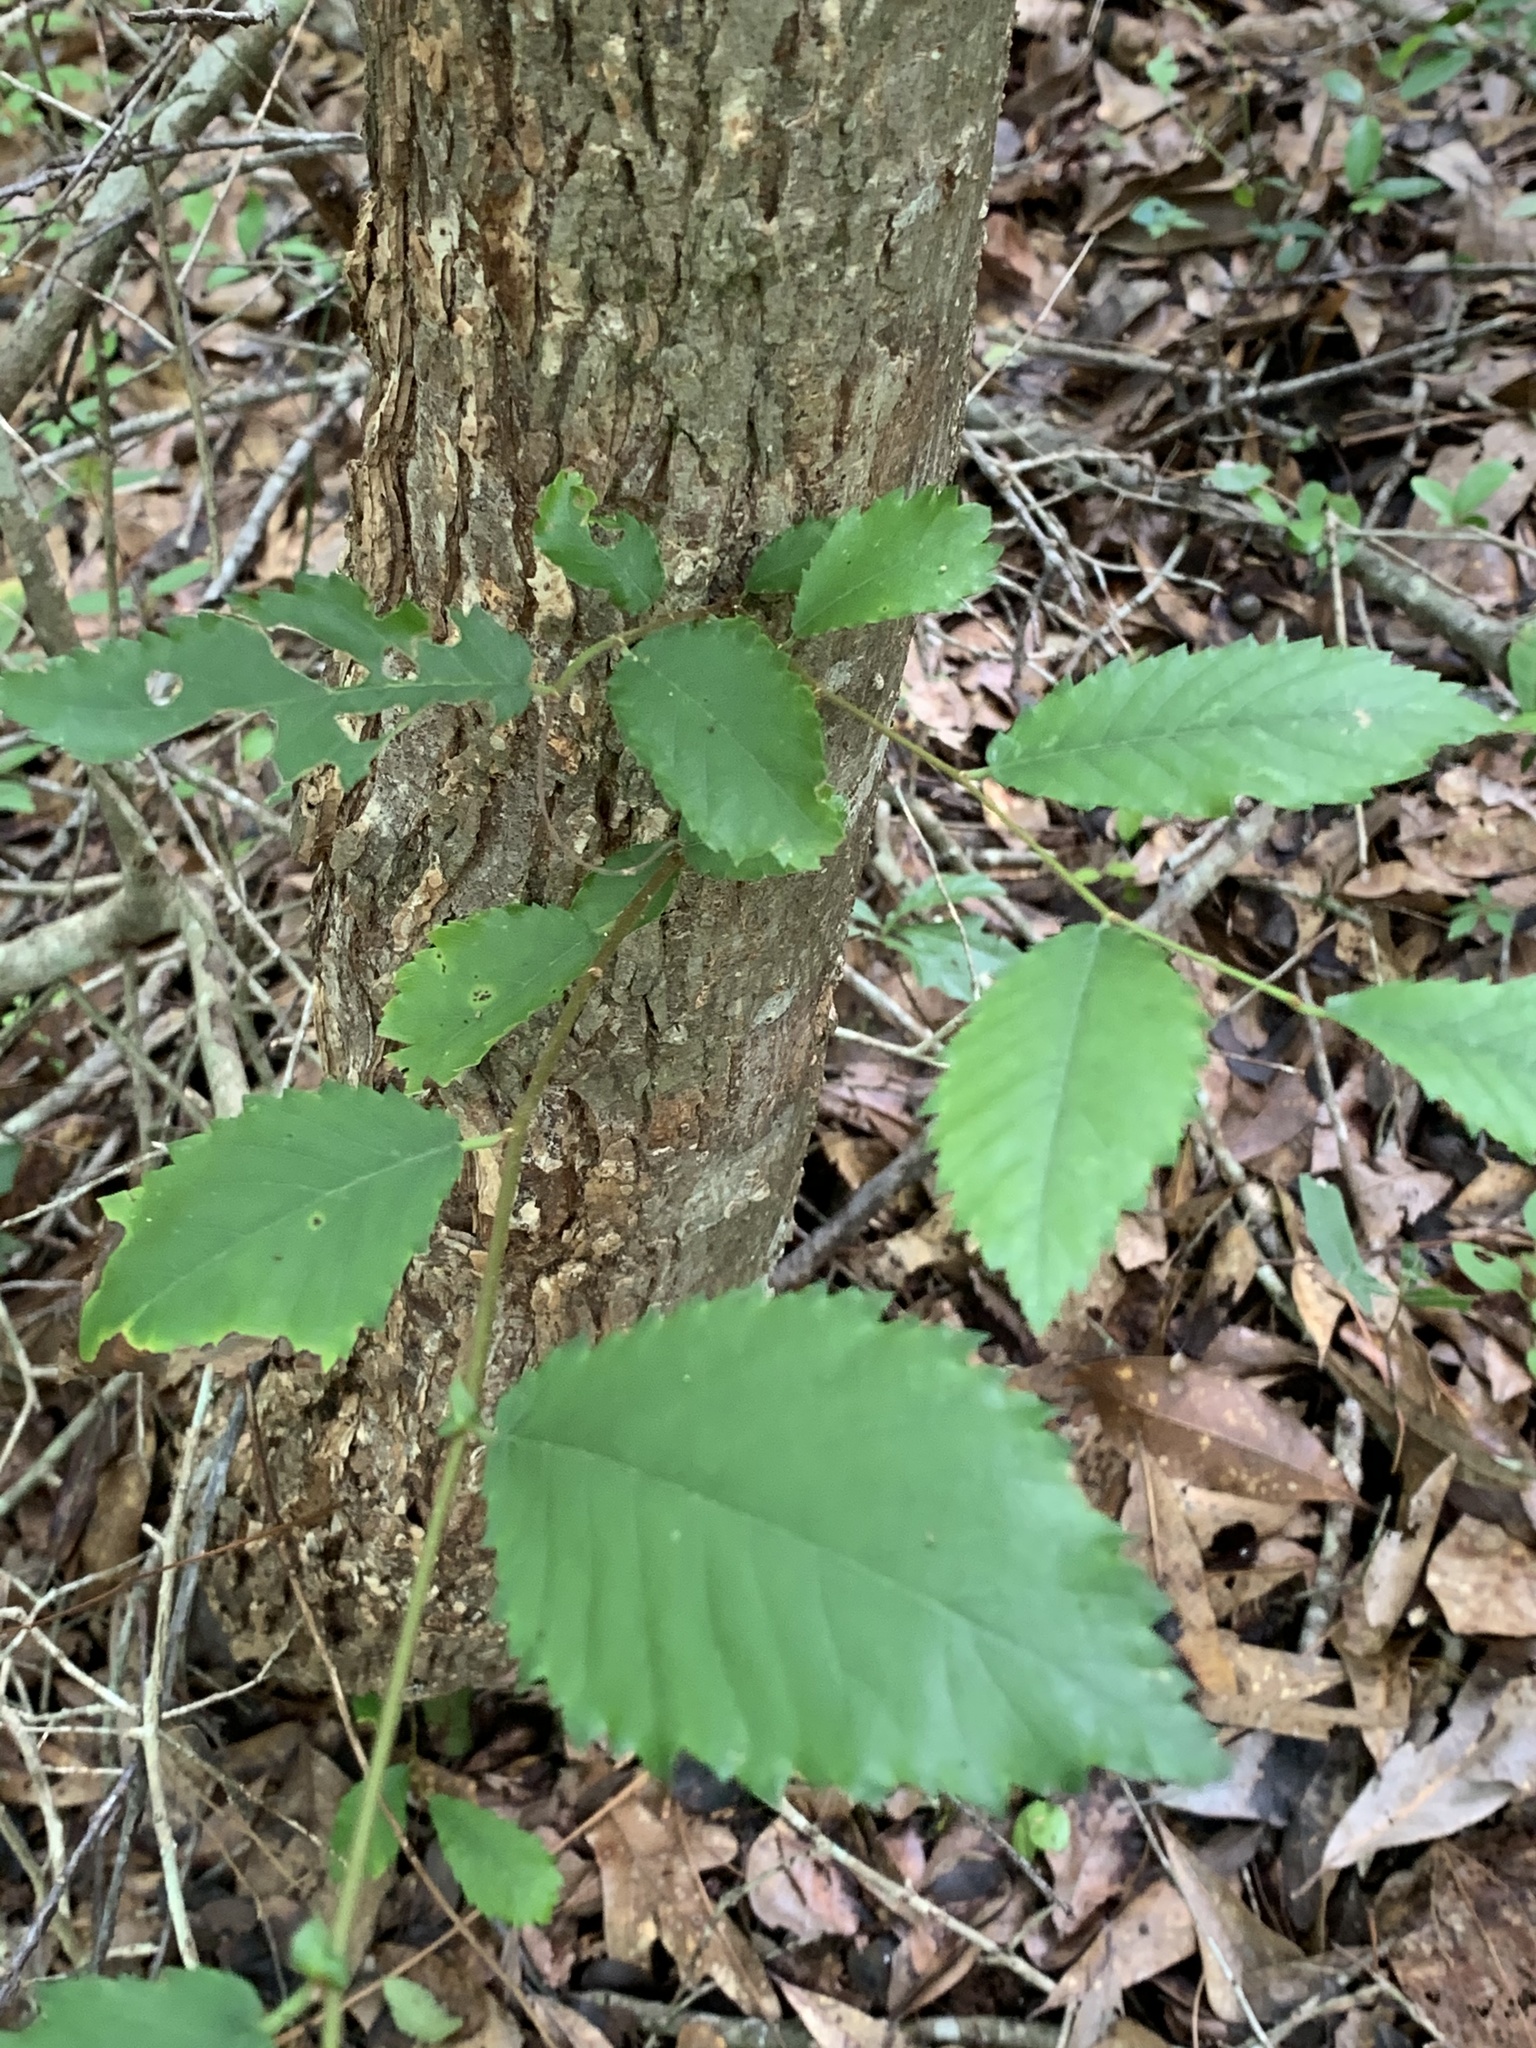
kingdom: Plantae
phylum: Tracheophyta
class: Magnoliopsida
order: Rosales
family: Ulmaceae
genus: Ulmus
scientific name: Ulmus americana
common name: American elm
